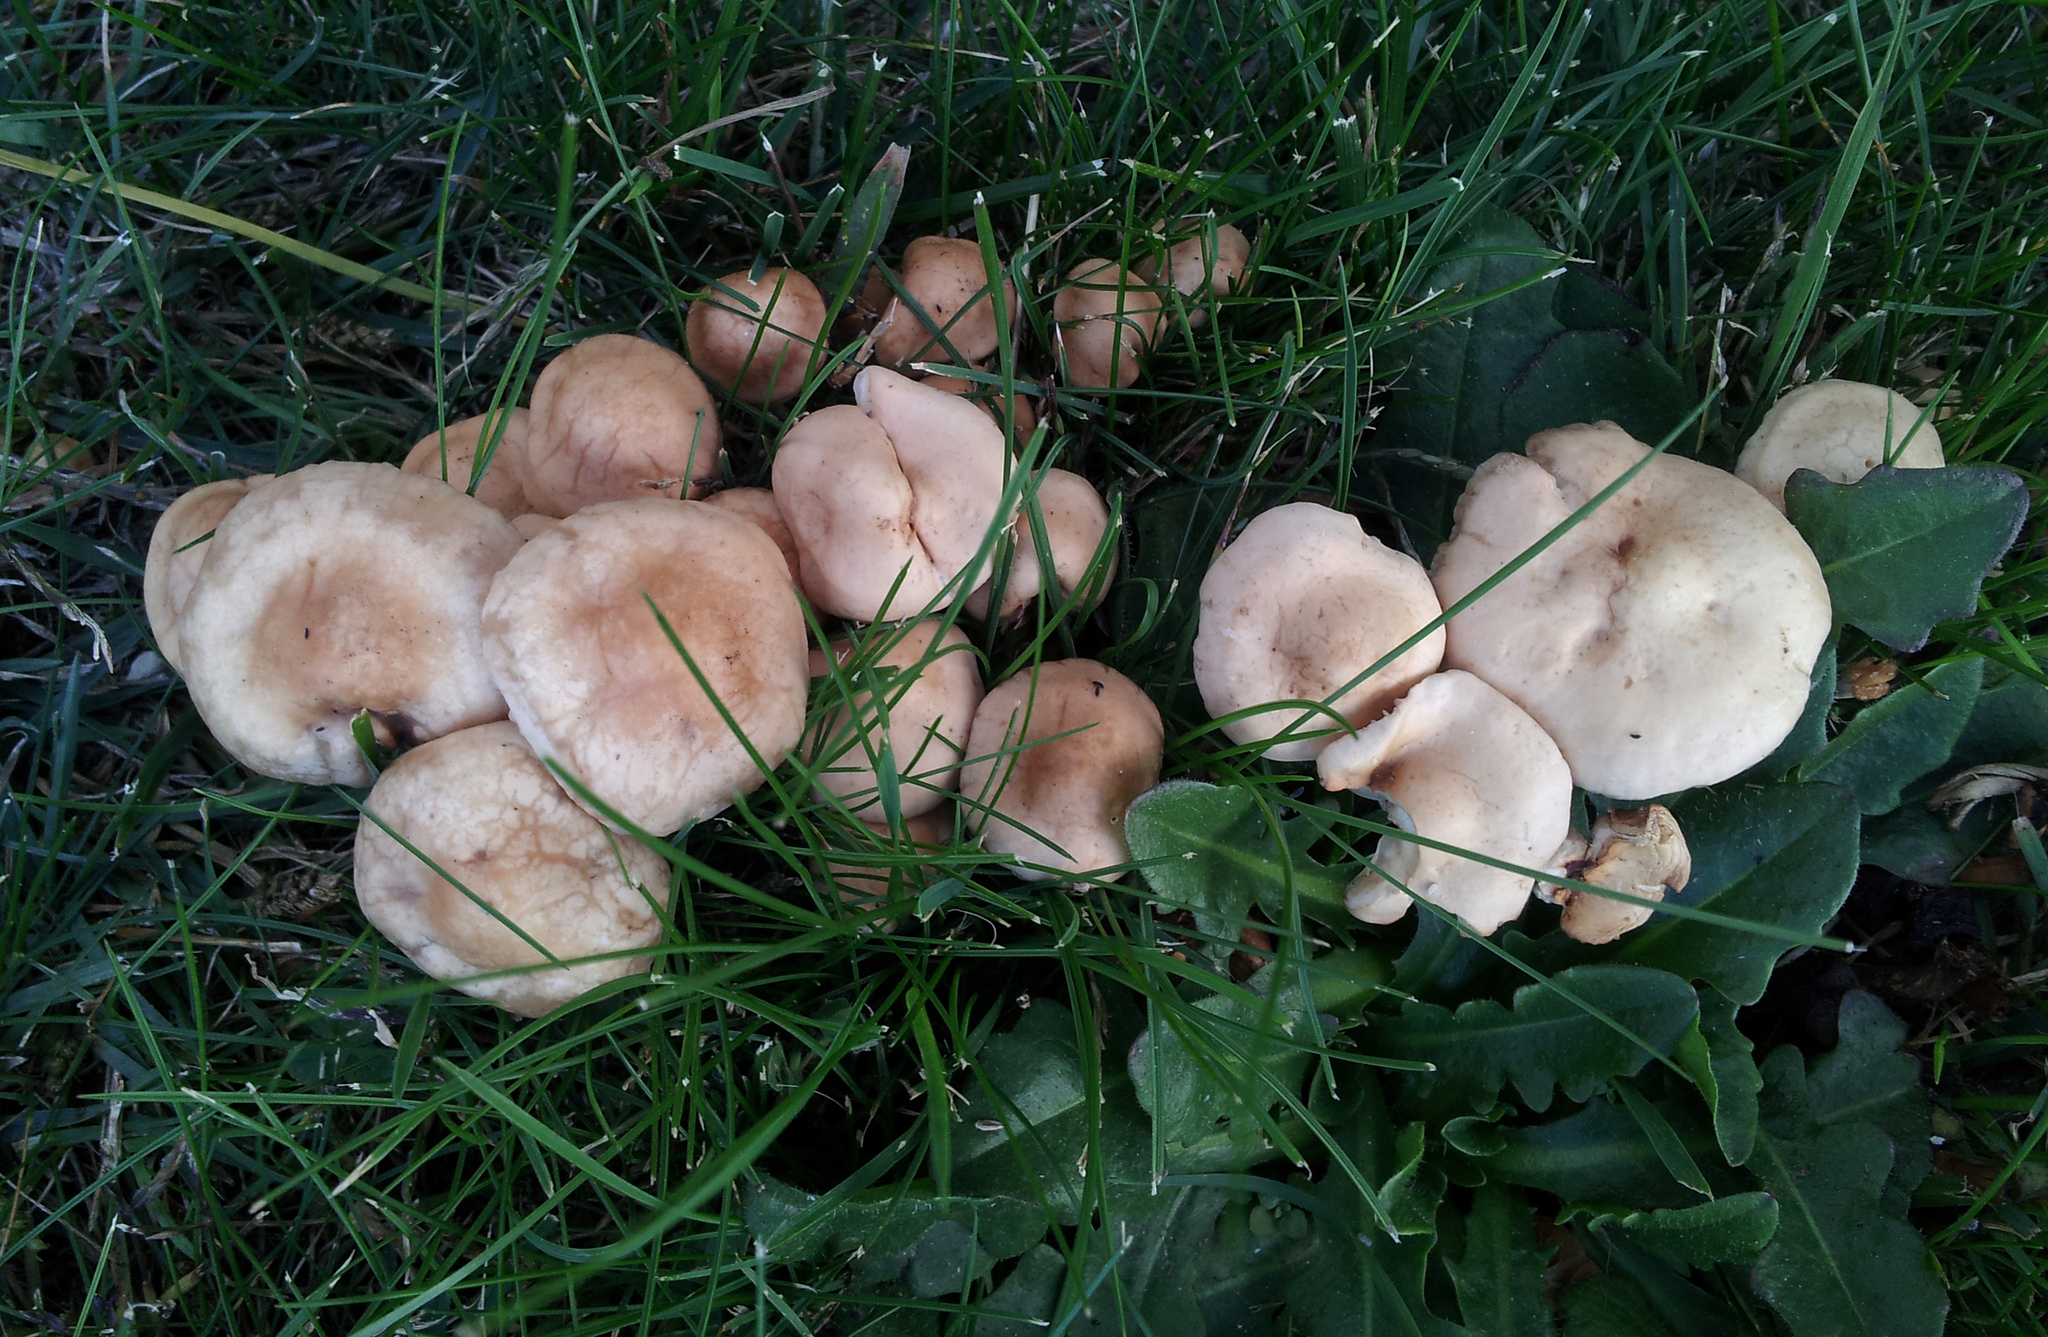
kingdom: Fungi
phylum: Basidiomycota
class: Agaricomycetes
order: Agaricales
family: Marasmiaceae
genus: Marasmius
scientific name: Marasmius oreades
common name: Fairy ring champignon
